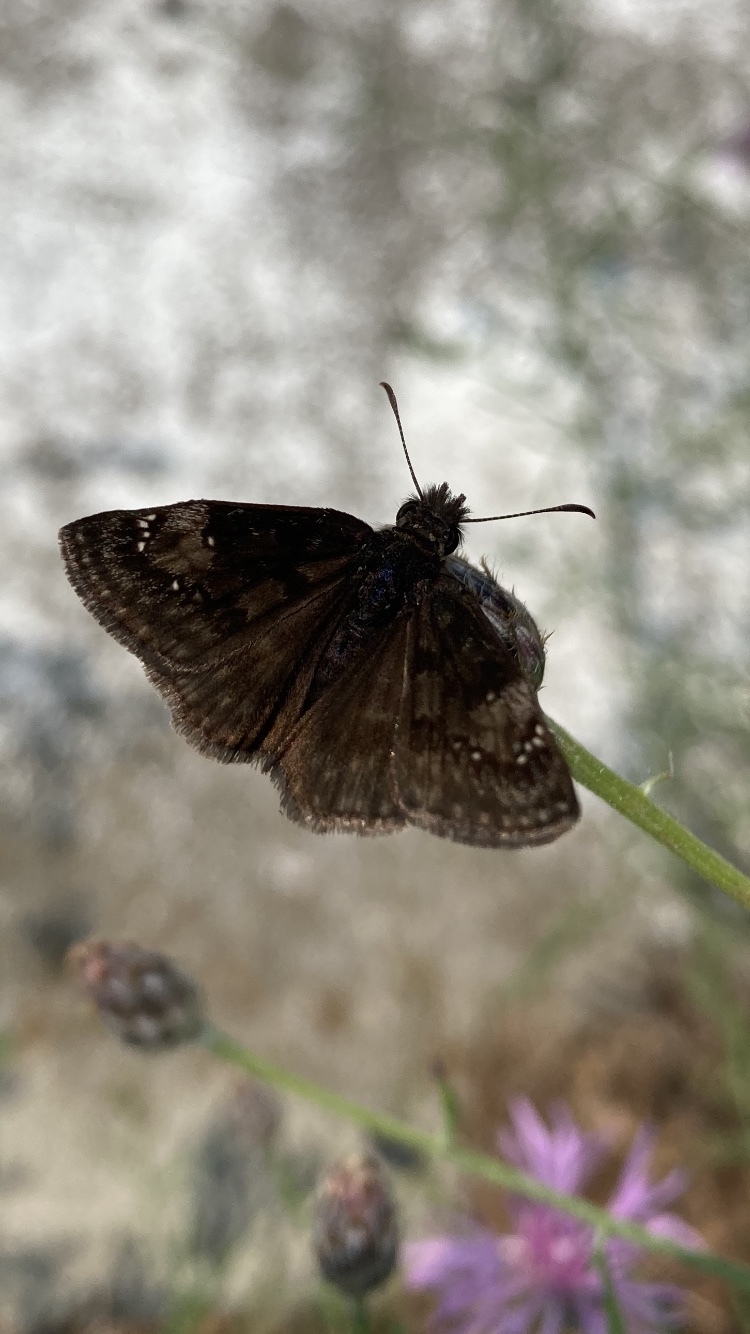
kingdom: Animalia
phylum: Arthropoda
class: Insecta
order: Lepidoptera
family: Hesperiidae
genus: Erynnis
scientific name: Erynnis baptisiae
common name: Wild indigo duskywing
